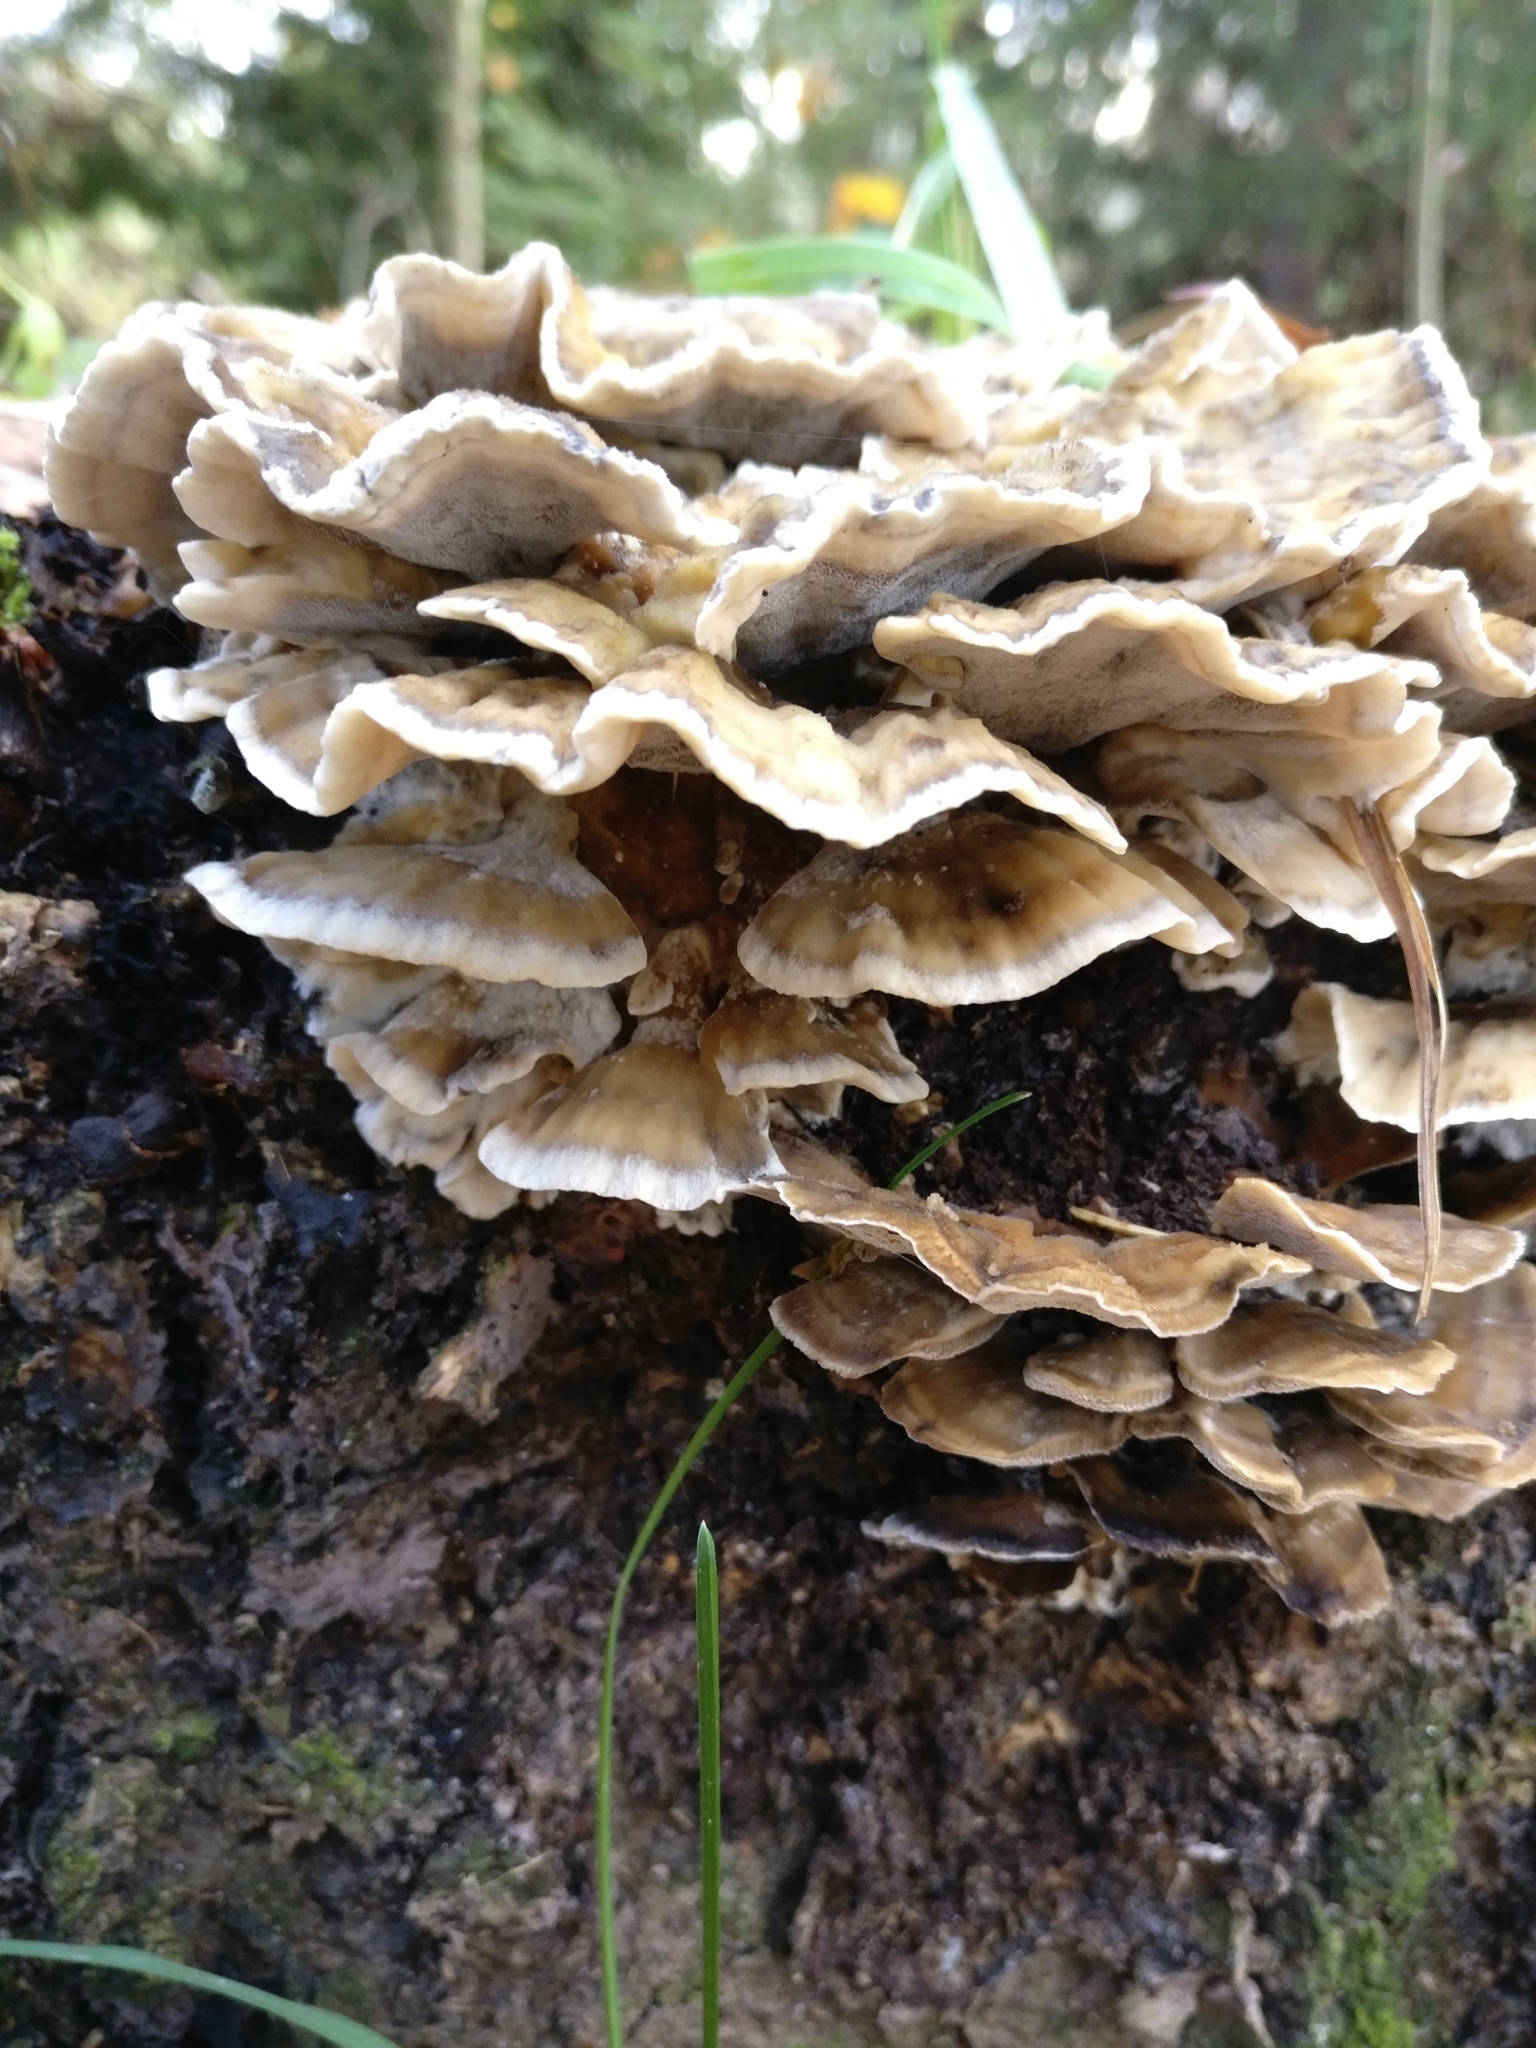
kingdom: Fungi
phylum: Basidiomycota
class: Agaricomycetes
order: Polyporales
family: Phanerochaetaceae
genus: Bjerkandera
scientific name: Bjerkandera adusta
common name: Smoky bracket
